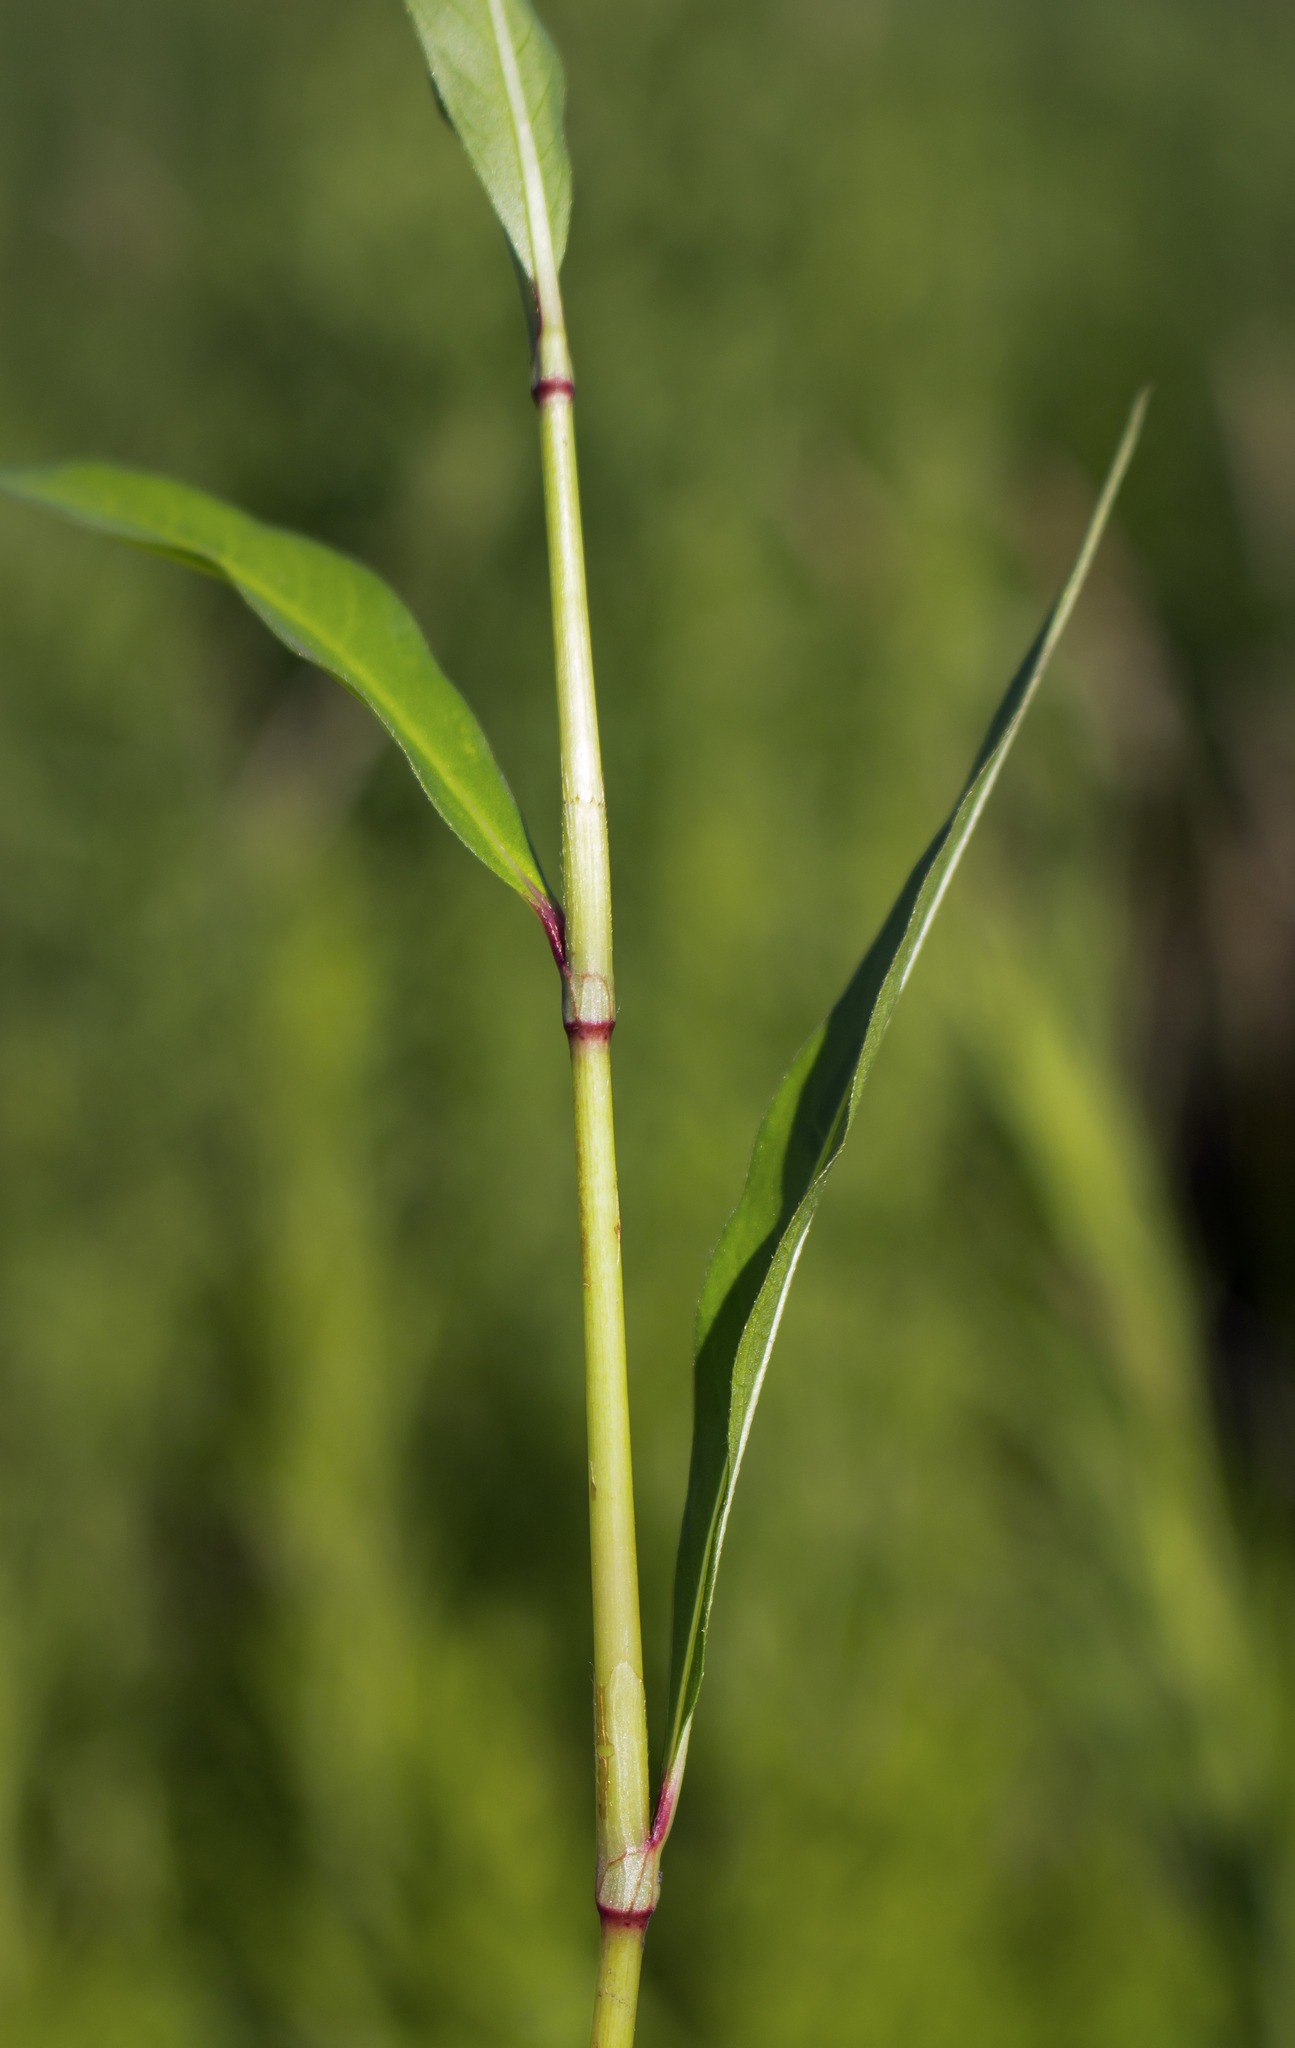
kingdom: Plantae
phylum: Tracheophyta
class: Magnoliopsida
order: Caryophyllales
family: Polygonaceae
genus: Persicaria
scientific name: Persicaria maculosa
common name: Redshank
